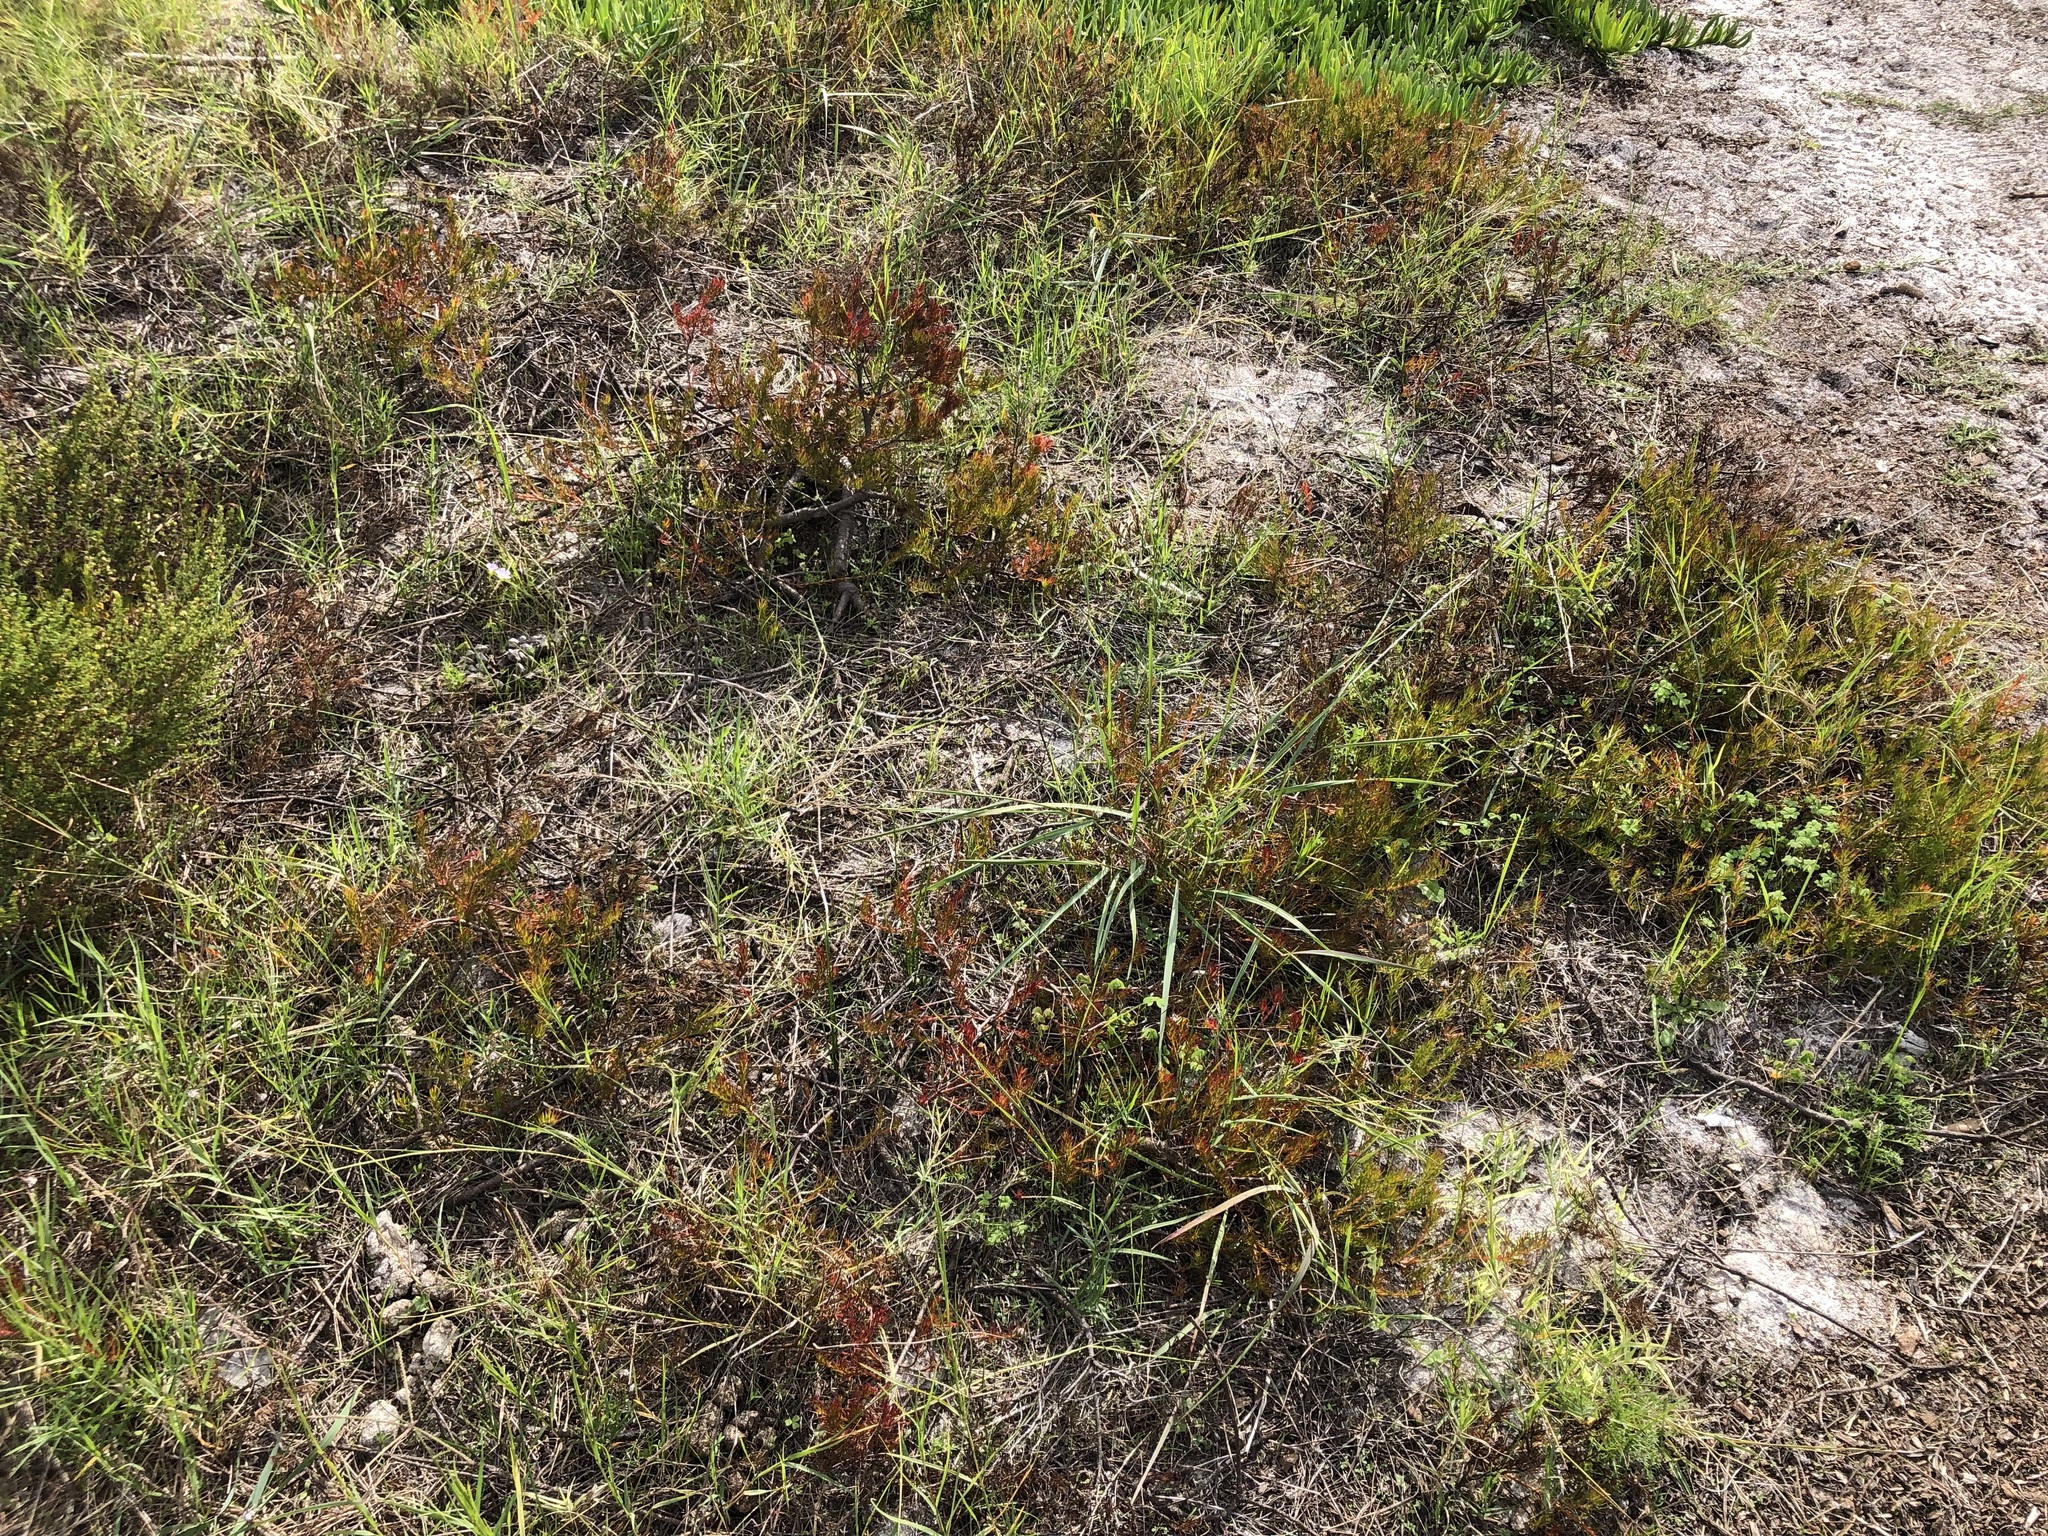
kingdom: Plantae
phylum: Tracheophyta
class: Magnoliopsida
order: Proteales
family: Proteaceae
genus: Diastella
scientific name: Diastella proteoides
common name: Flats silkypuff
